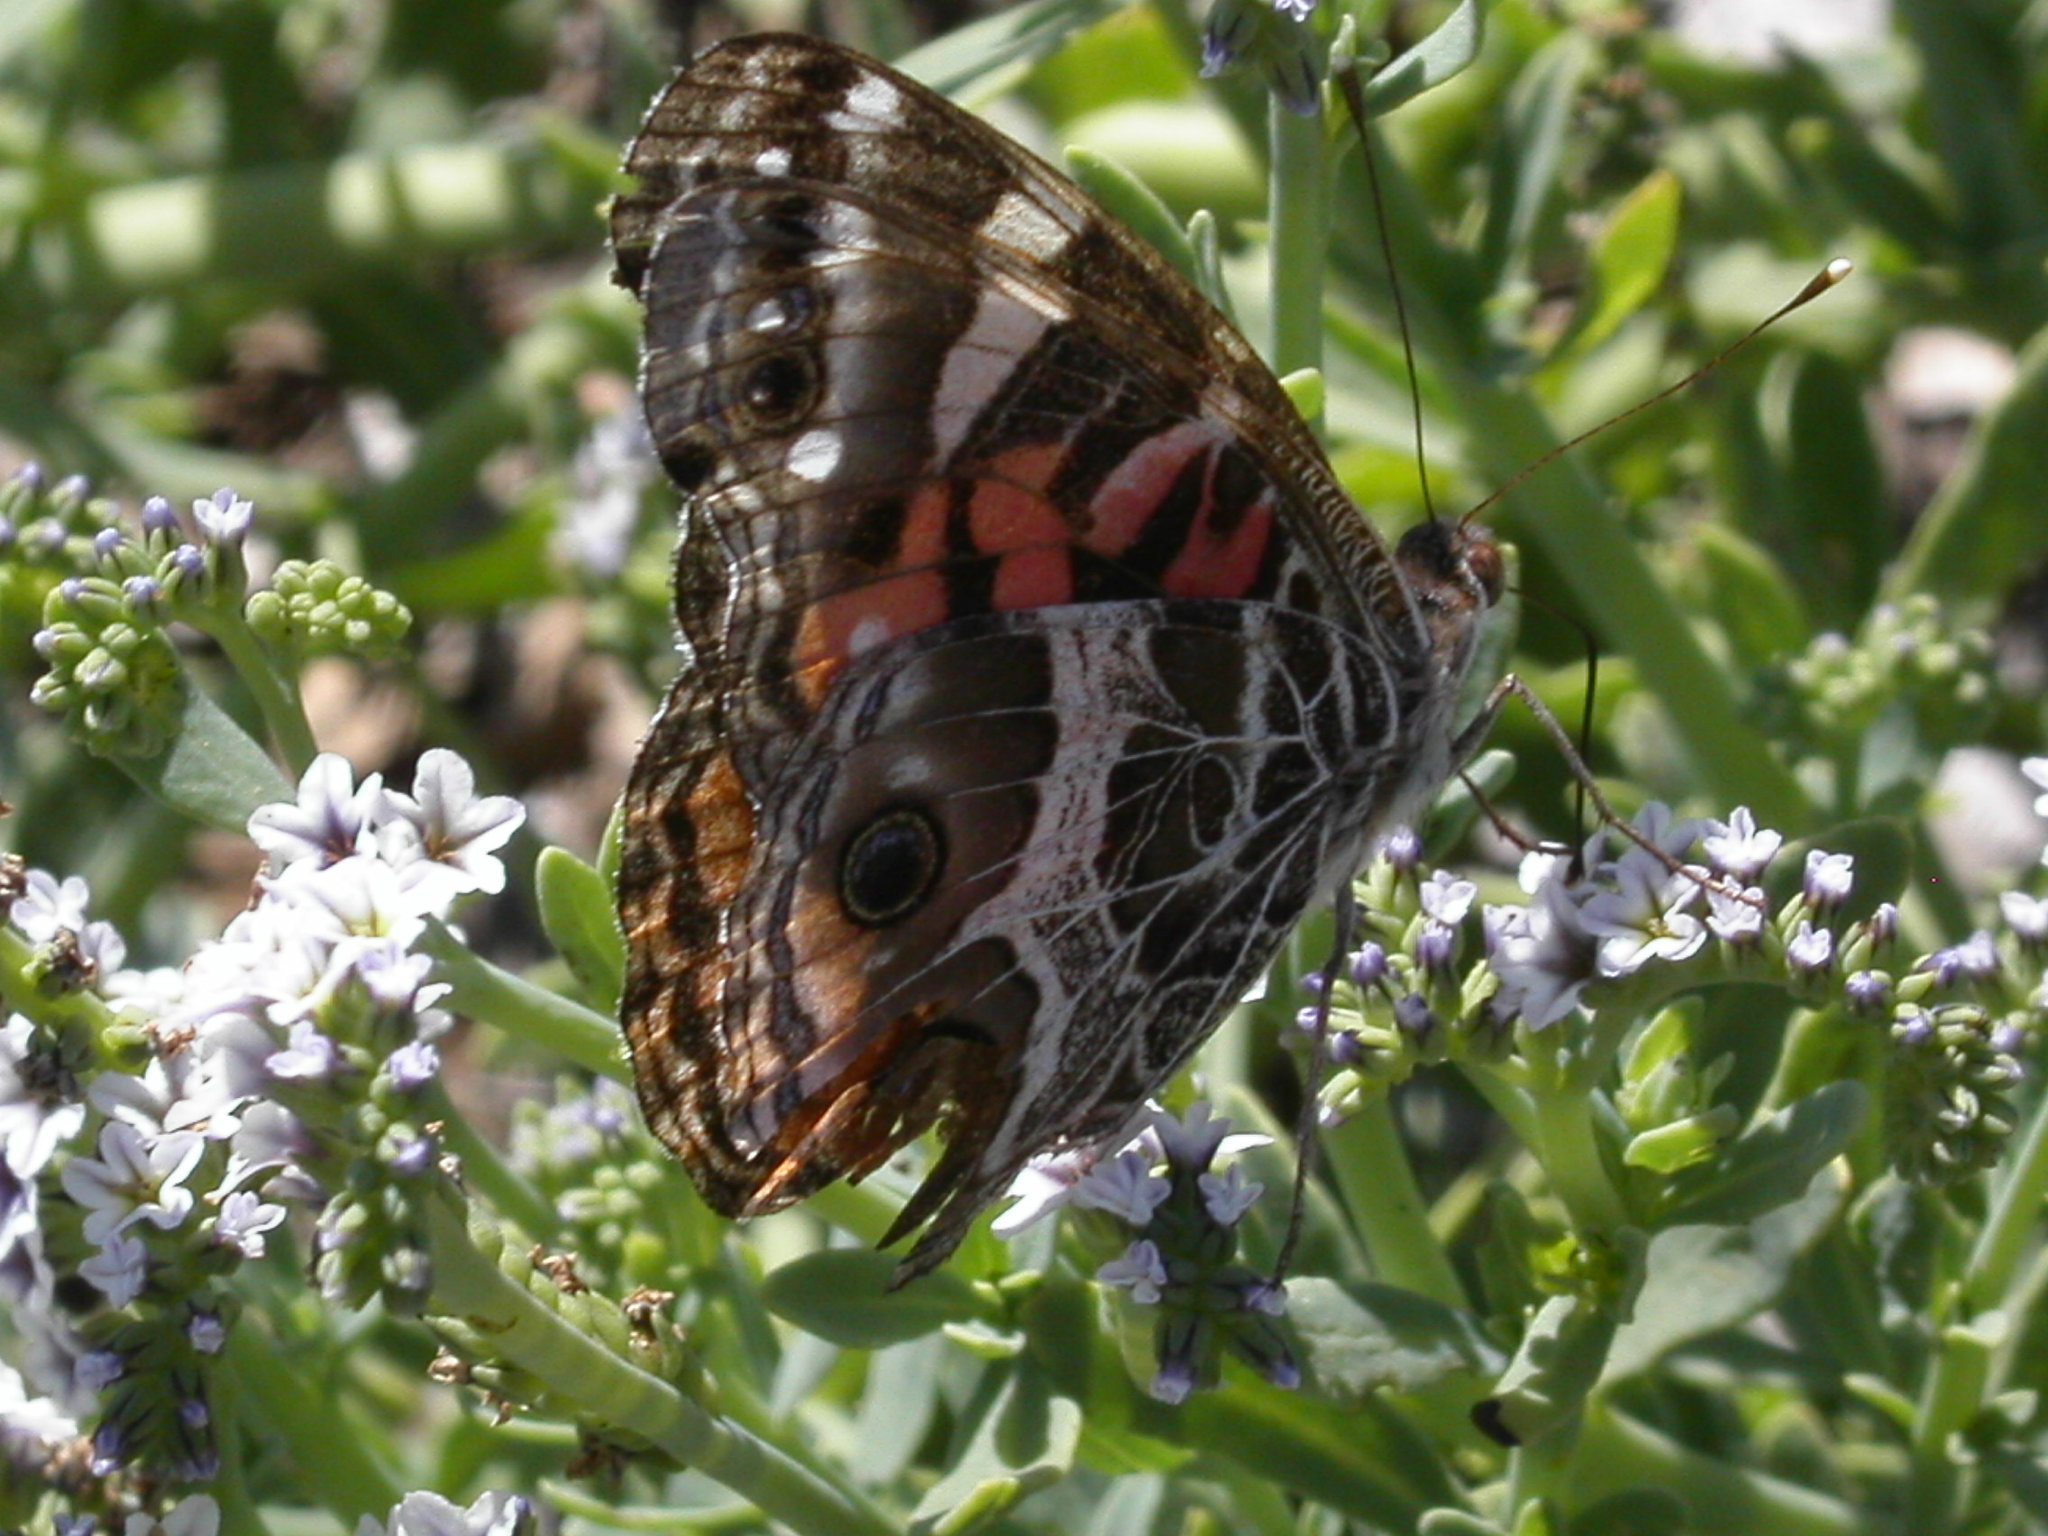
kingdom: Animalia
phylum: Arthropoda
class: Insecta
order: Lepidoptera
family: Nymphalidae
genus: Vanessa
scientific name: Vanessa virginiensis
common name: American lady
